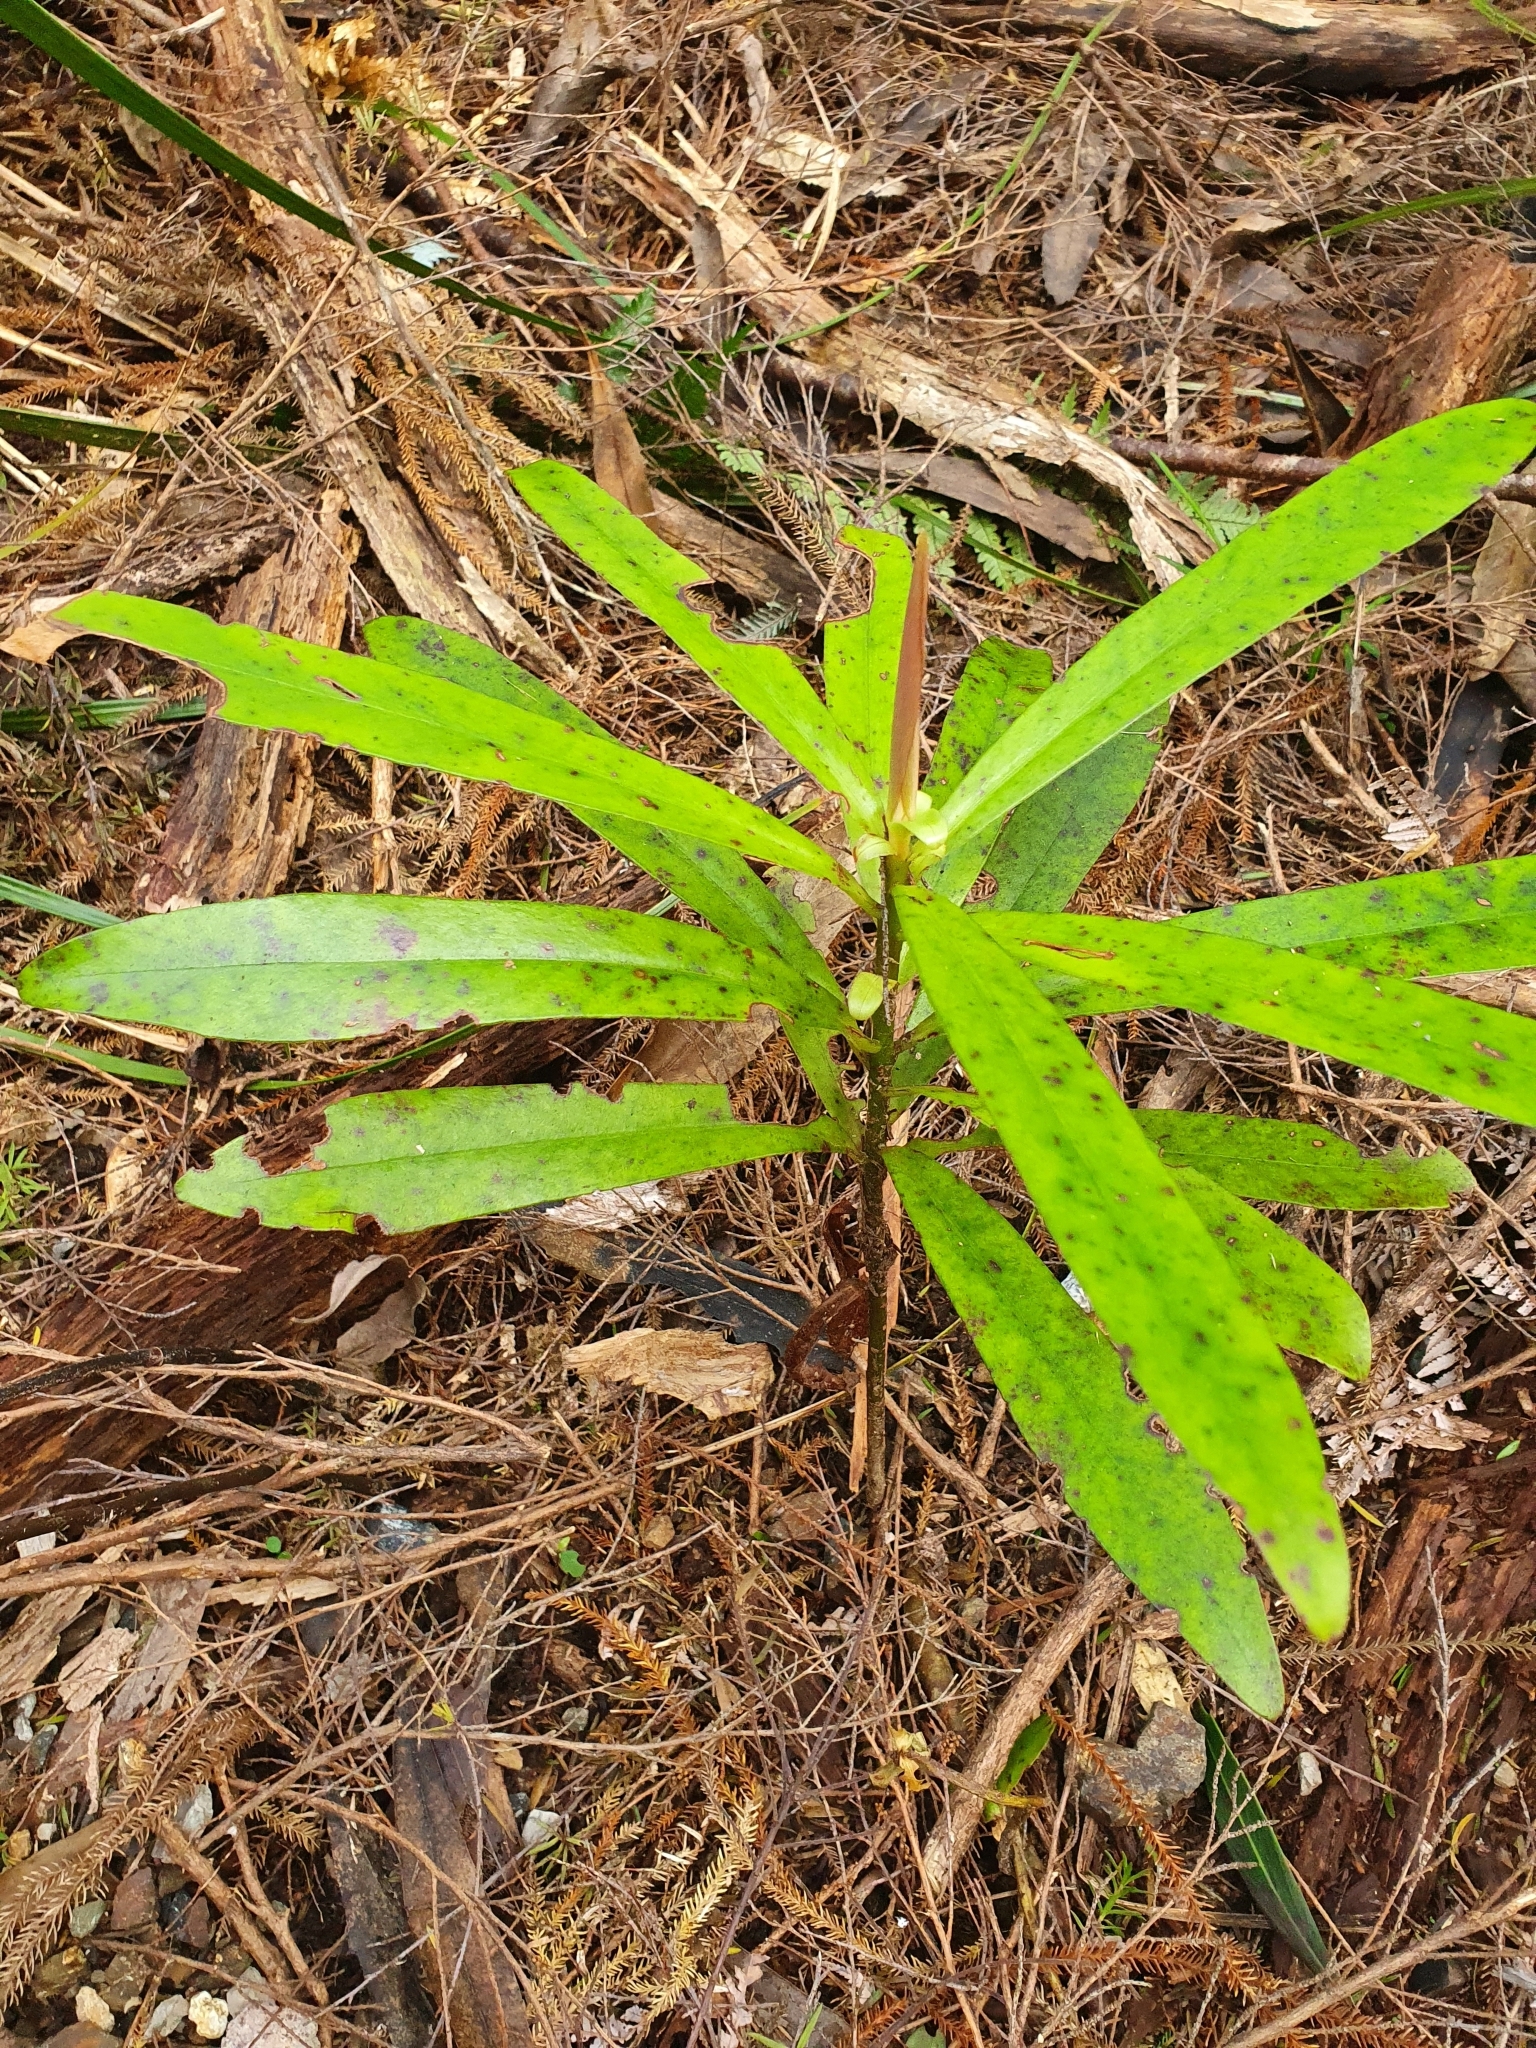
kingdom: Plantae
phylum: Tracheophyta
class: Magnoliopsida
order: Ericales
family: Primulaceae
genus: Myrsine
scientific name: Myrsine salicina
